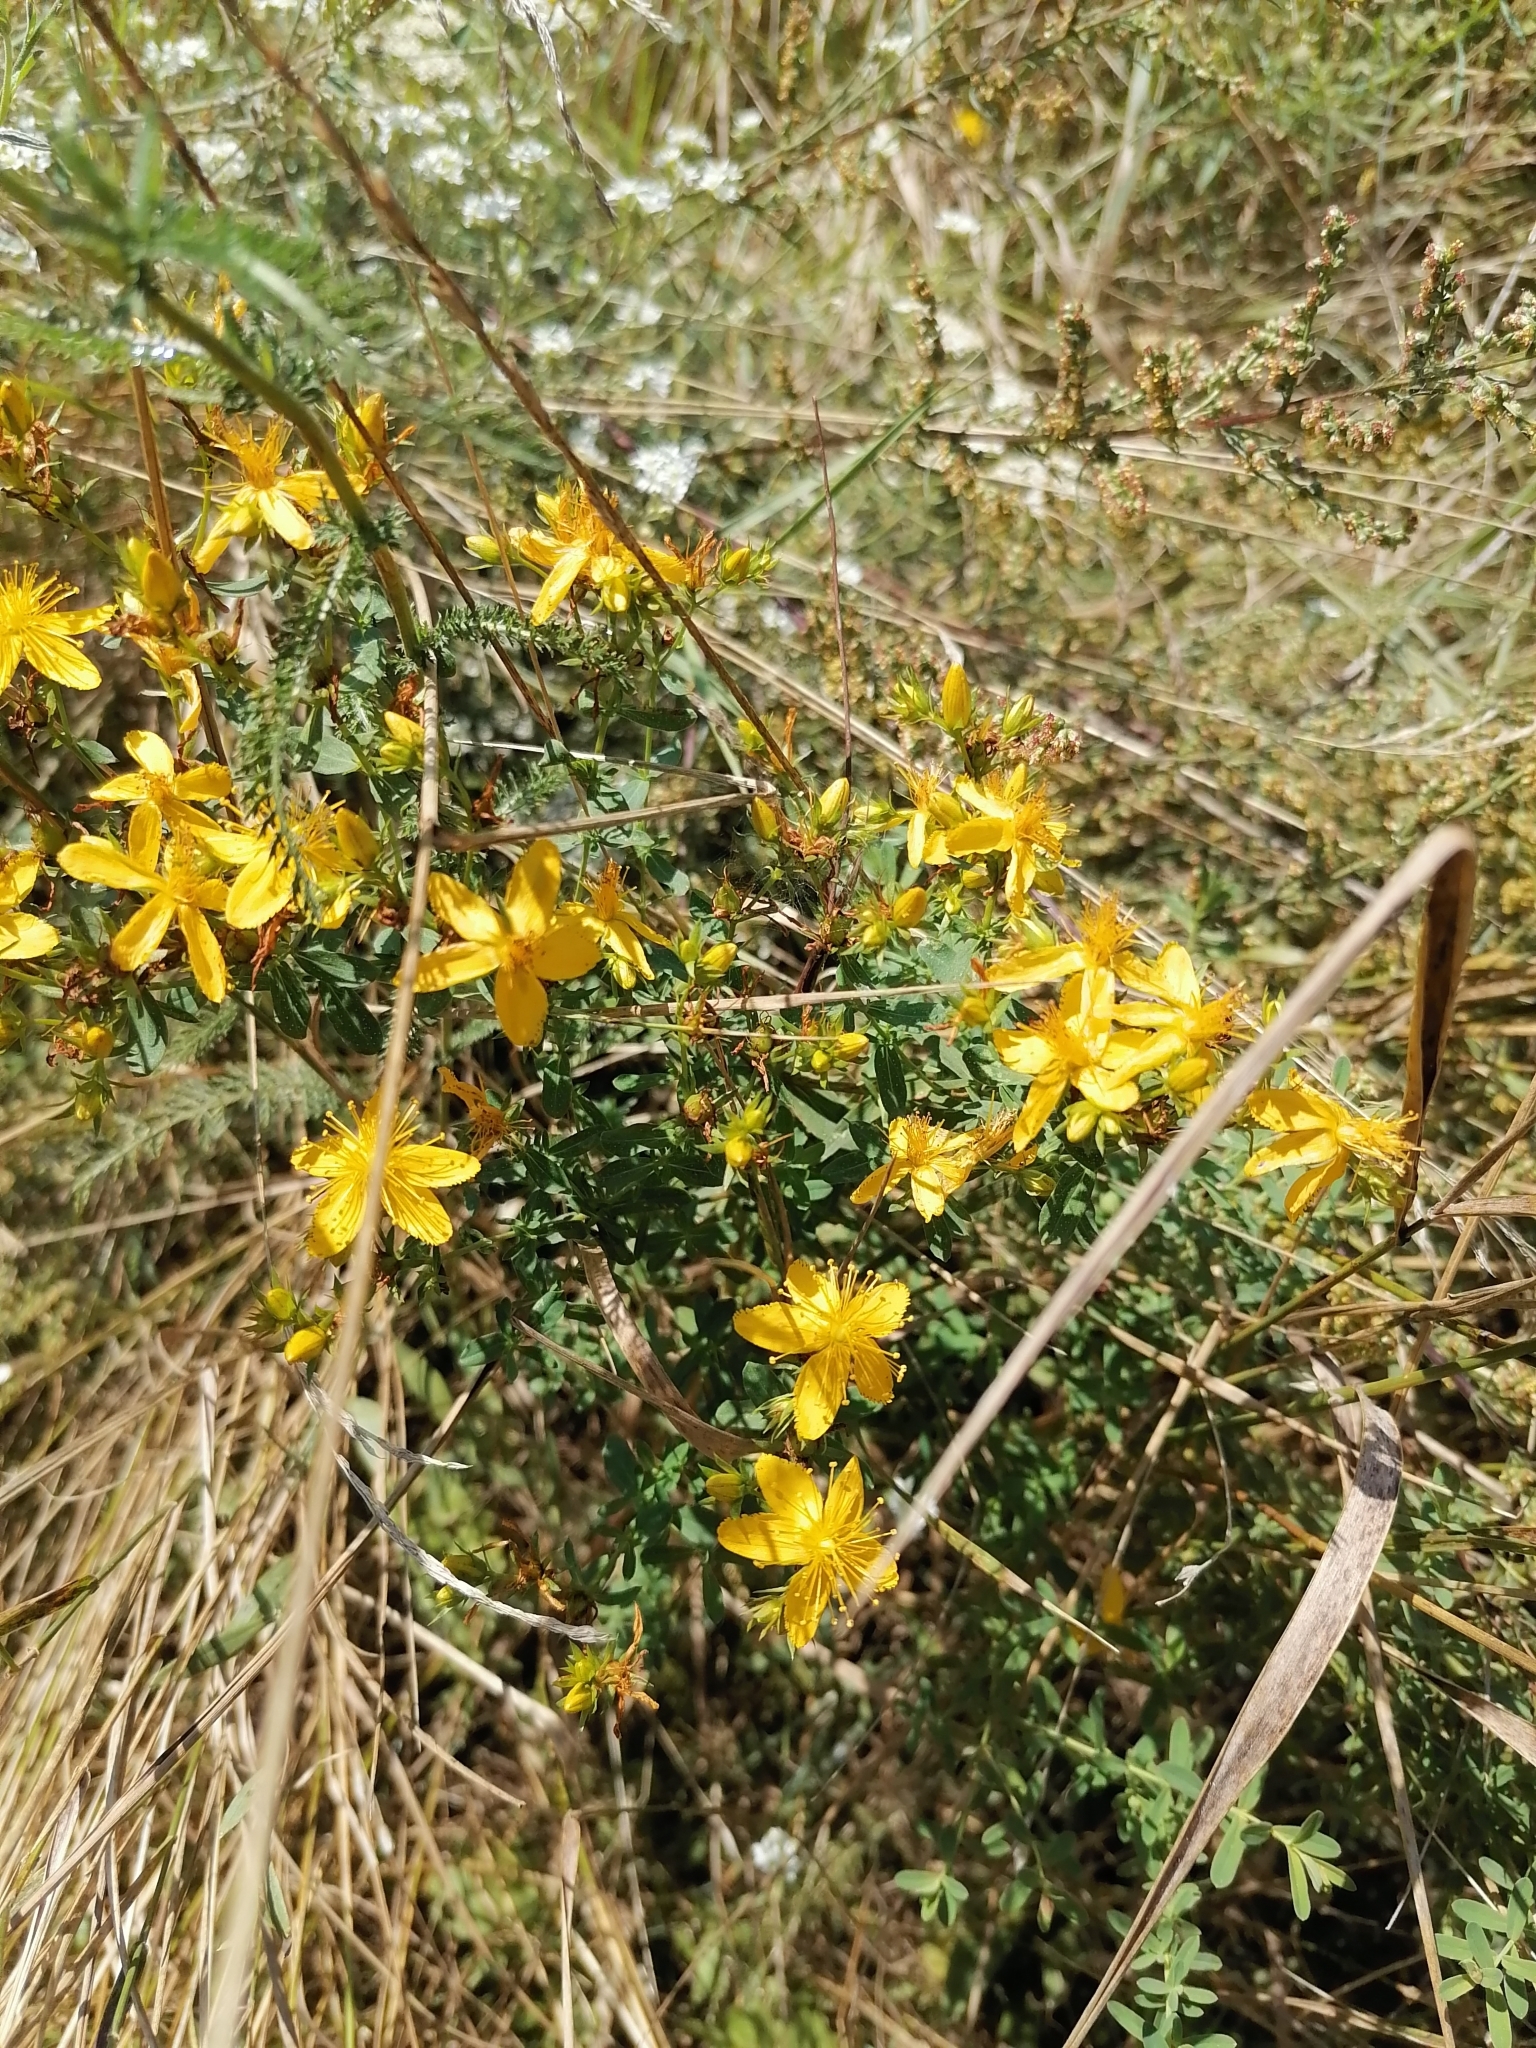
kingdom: Plantae
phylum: Tracheophyta
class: Magnoliopsida
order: Malpighiales
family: Hypericaceae
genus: Hypericum
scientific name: Hypericum perforatum
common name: Common st. johnswort
